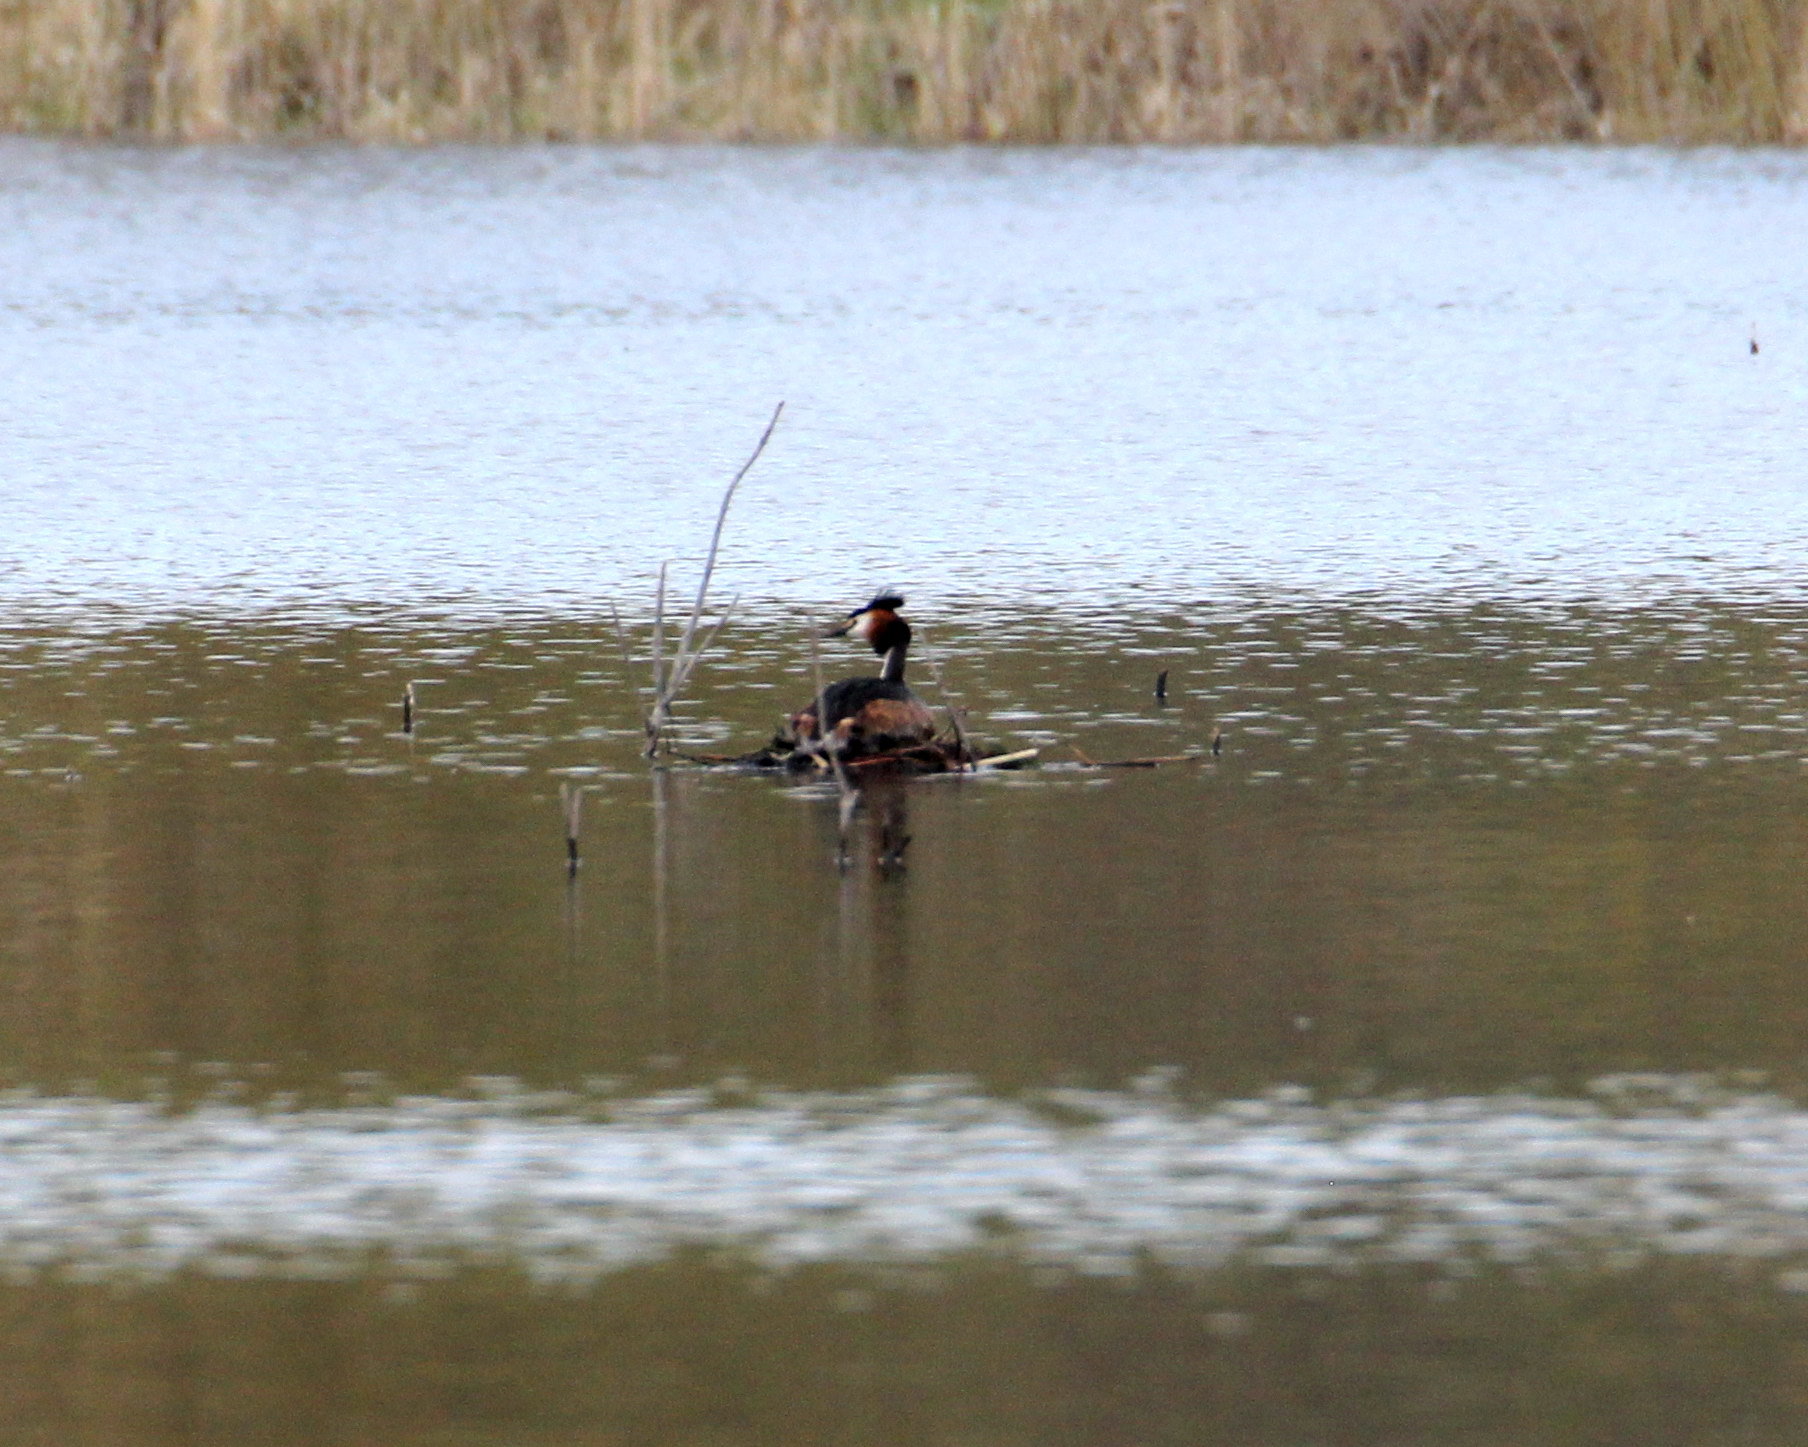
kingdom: Animalia
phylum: Chordata
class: Aves
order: Podicipediformes
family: Podicipedidae
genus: Podiceps
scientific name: Podiceps cristatus
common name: Great crested grebe
